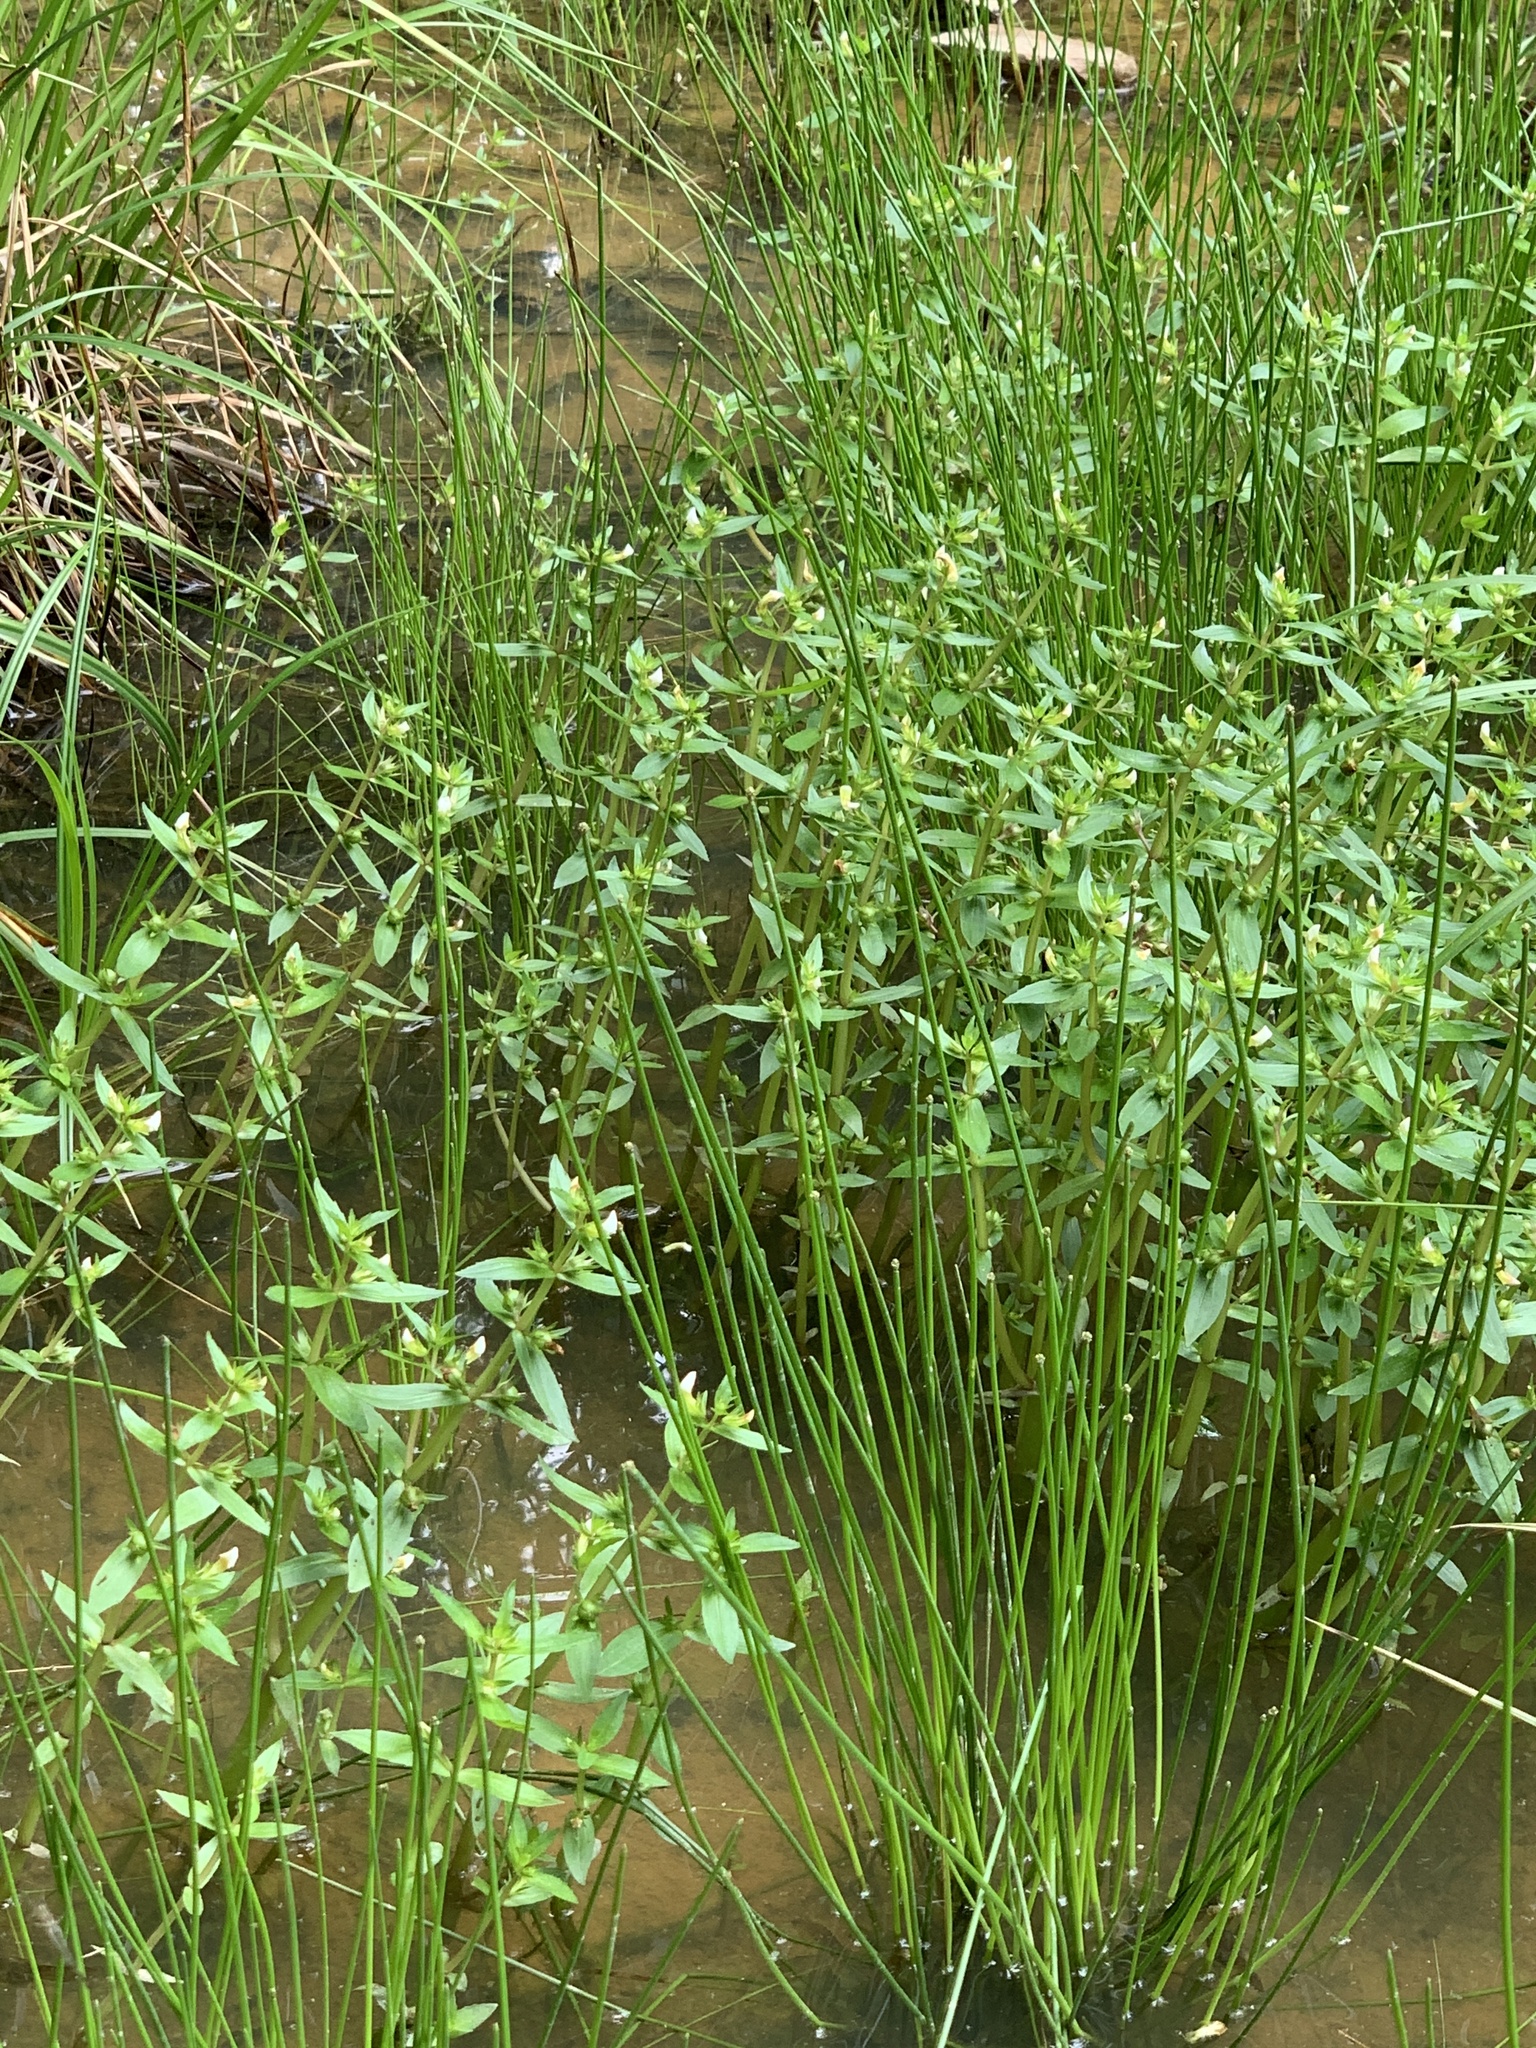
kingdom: Plantae
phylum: Tracheophyta
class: Magnoliopsida
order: Lamiales
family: Plantaginaceae
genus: Gratiola
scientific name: Gratiola virginiana
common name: Roundfruit hedgehyssop
